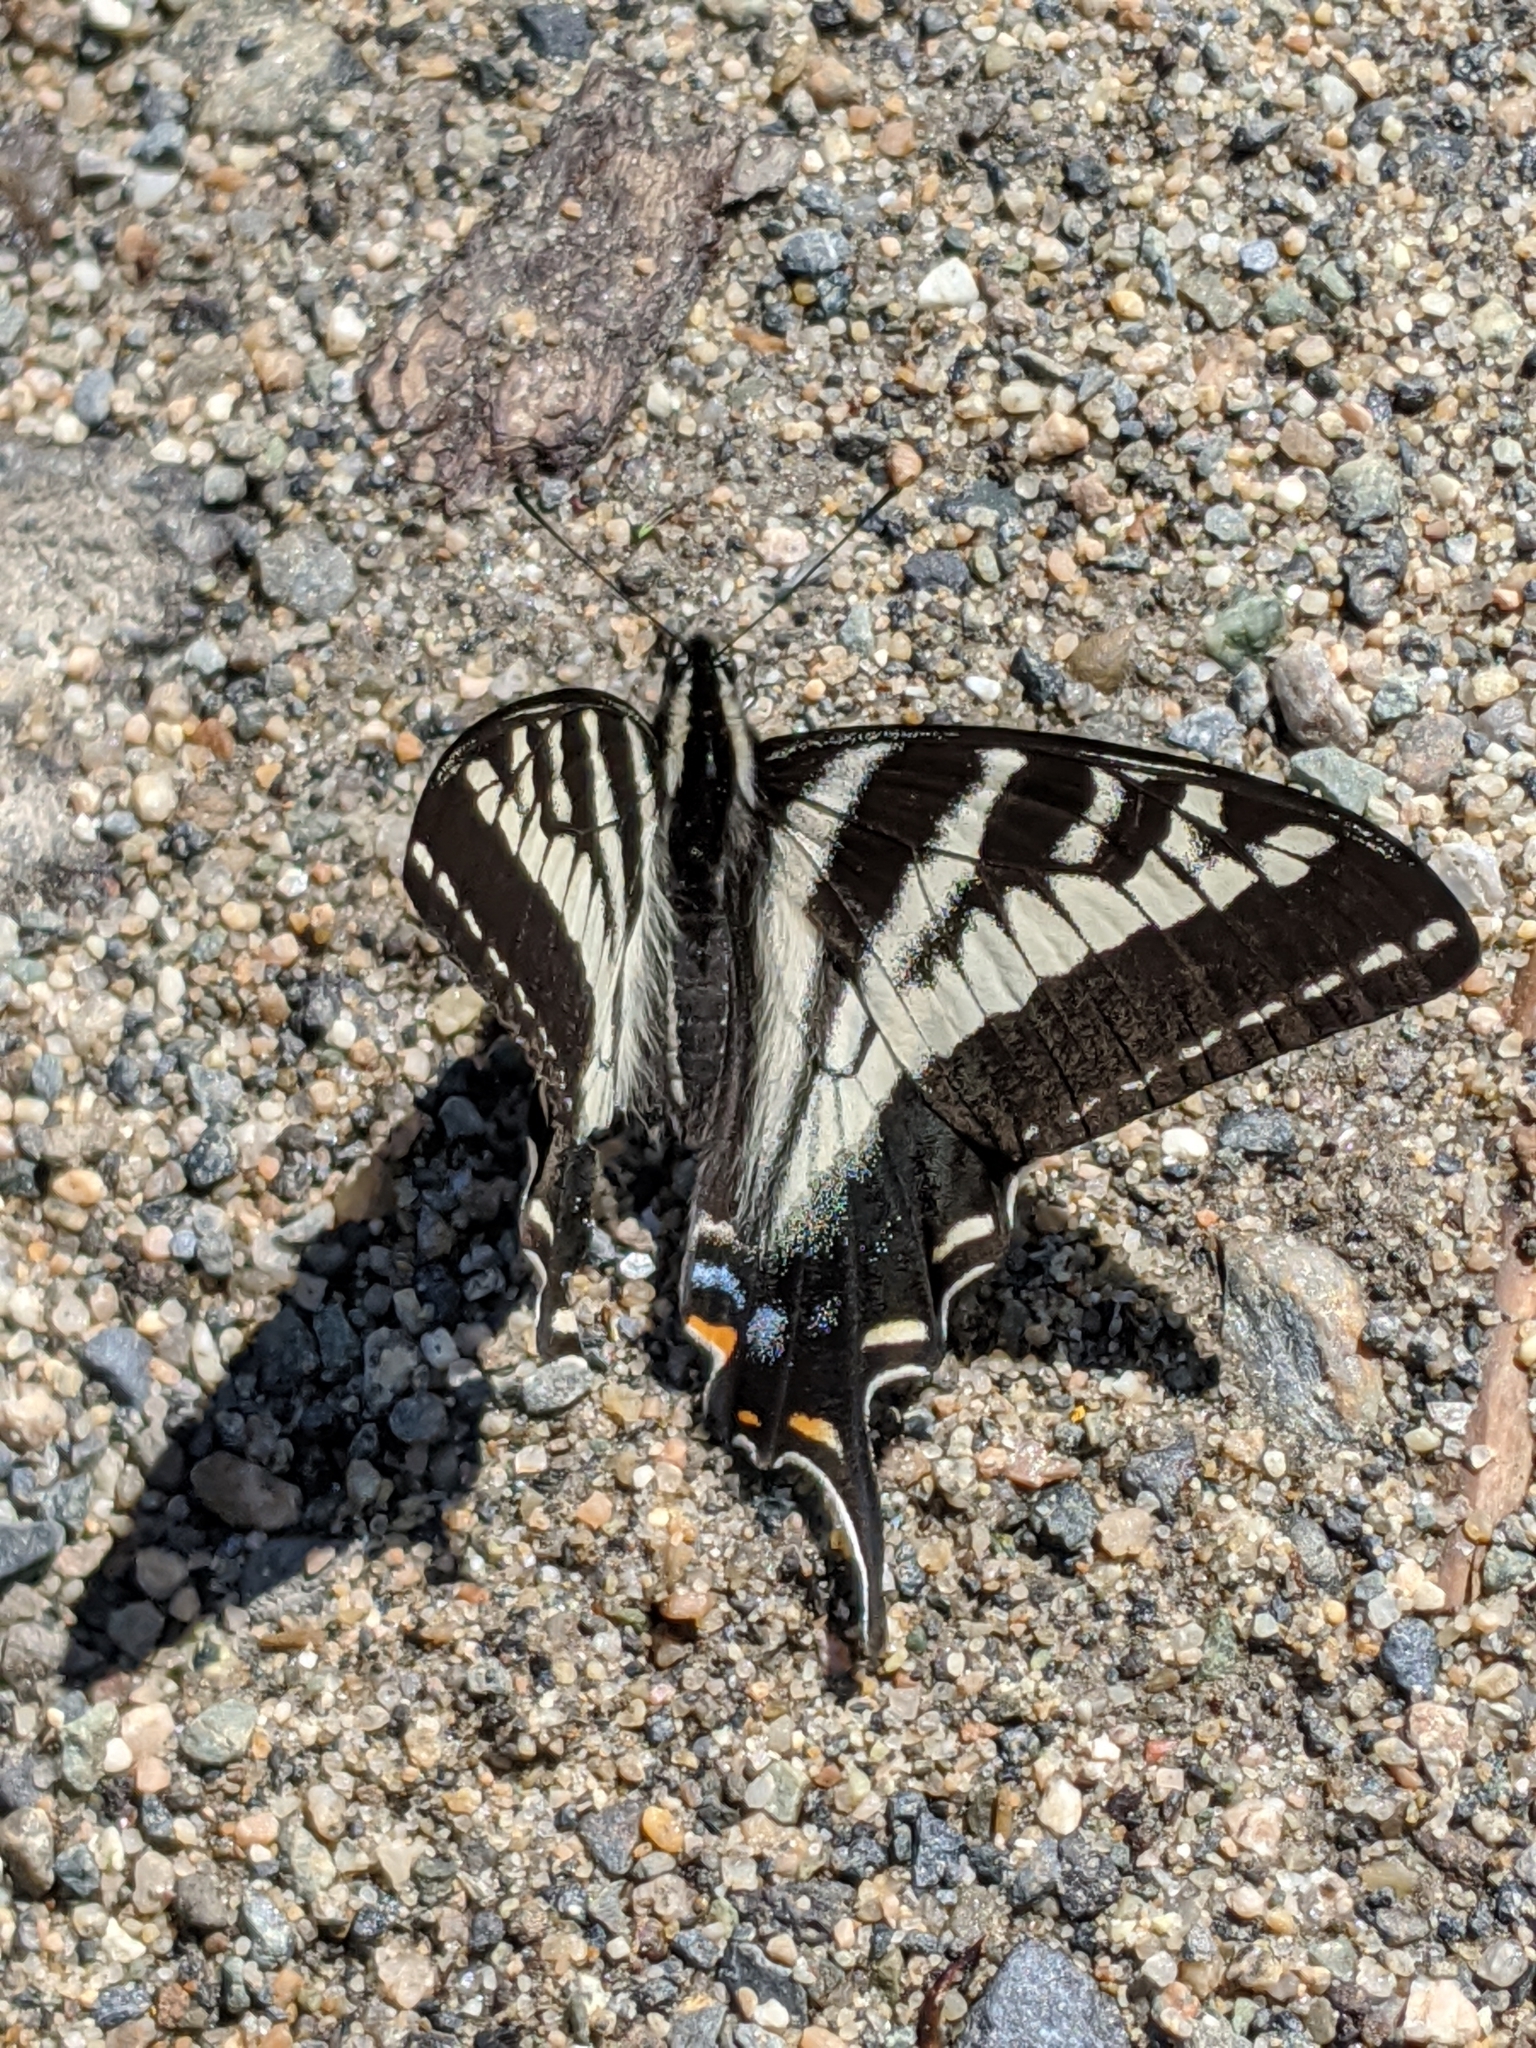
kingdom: Animalia
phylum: Arthropoda
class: Insecta
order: Lepidoptera
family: Papilionidae
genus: Papilio
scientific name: Papilio eurymedon
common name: Pale tiger swallowtail
